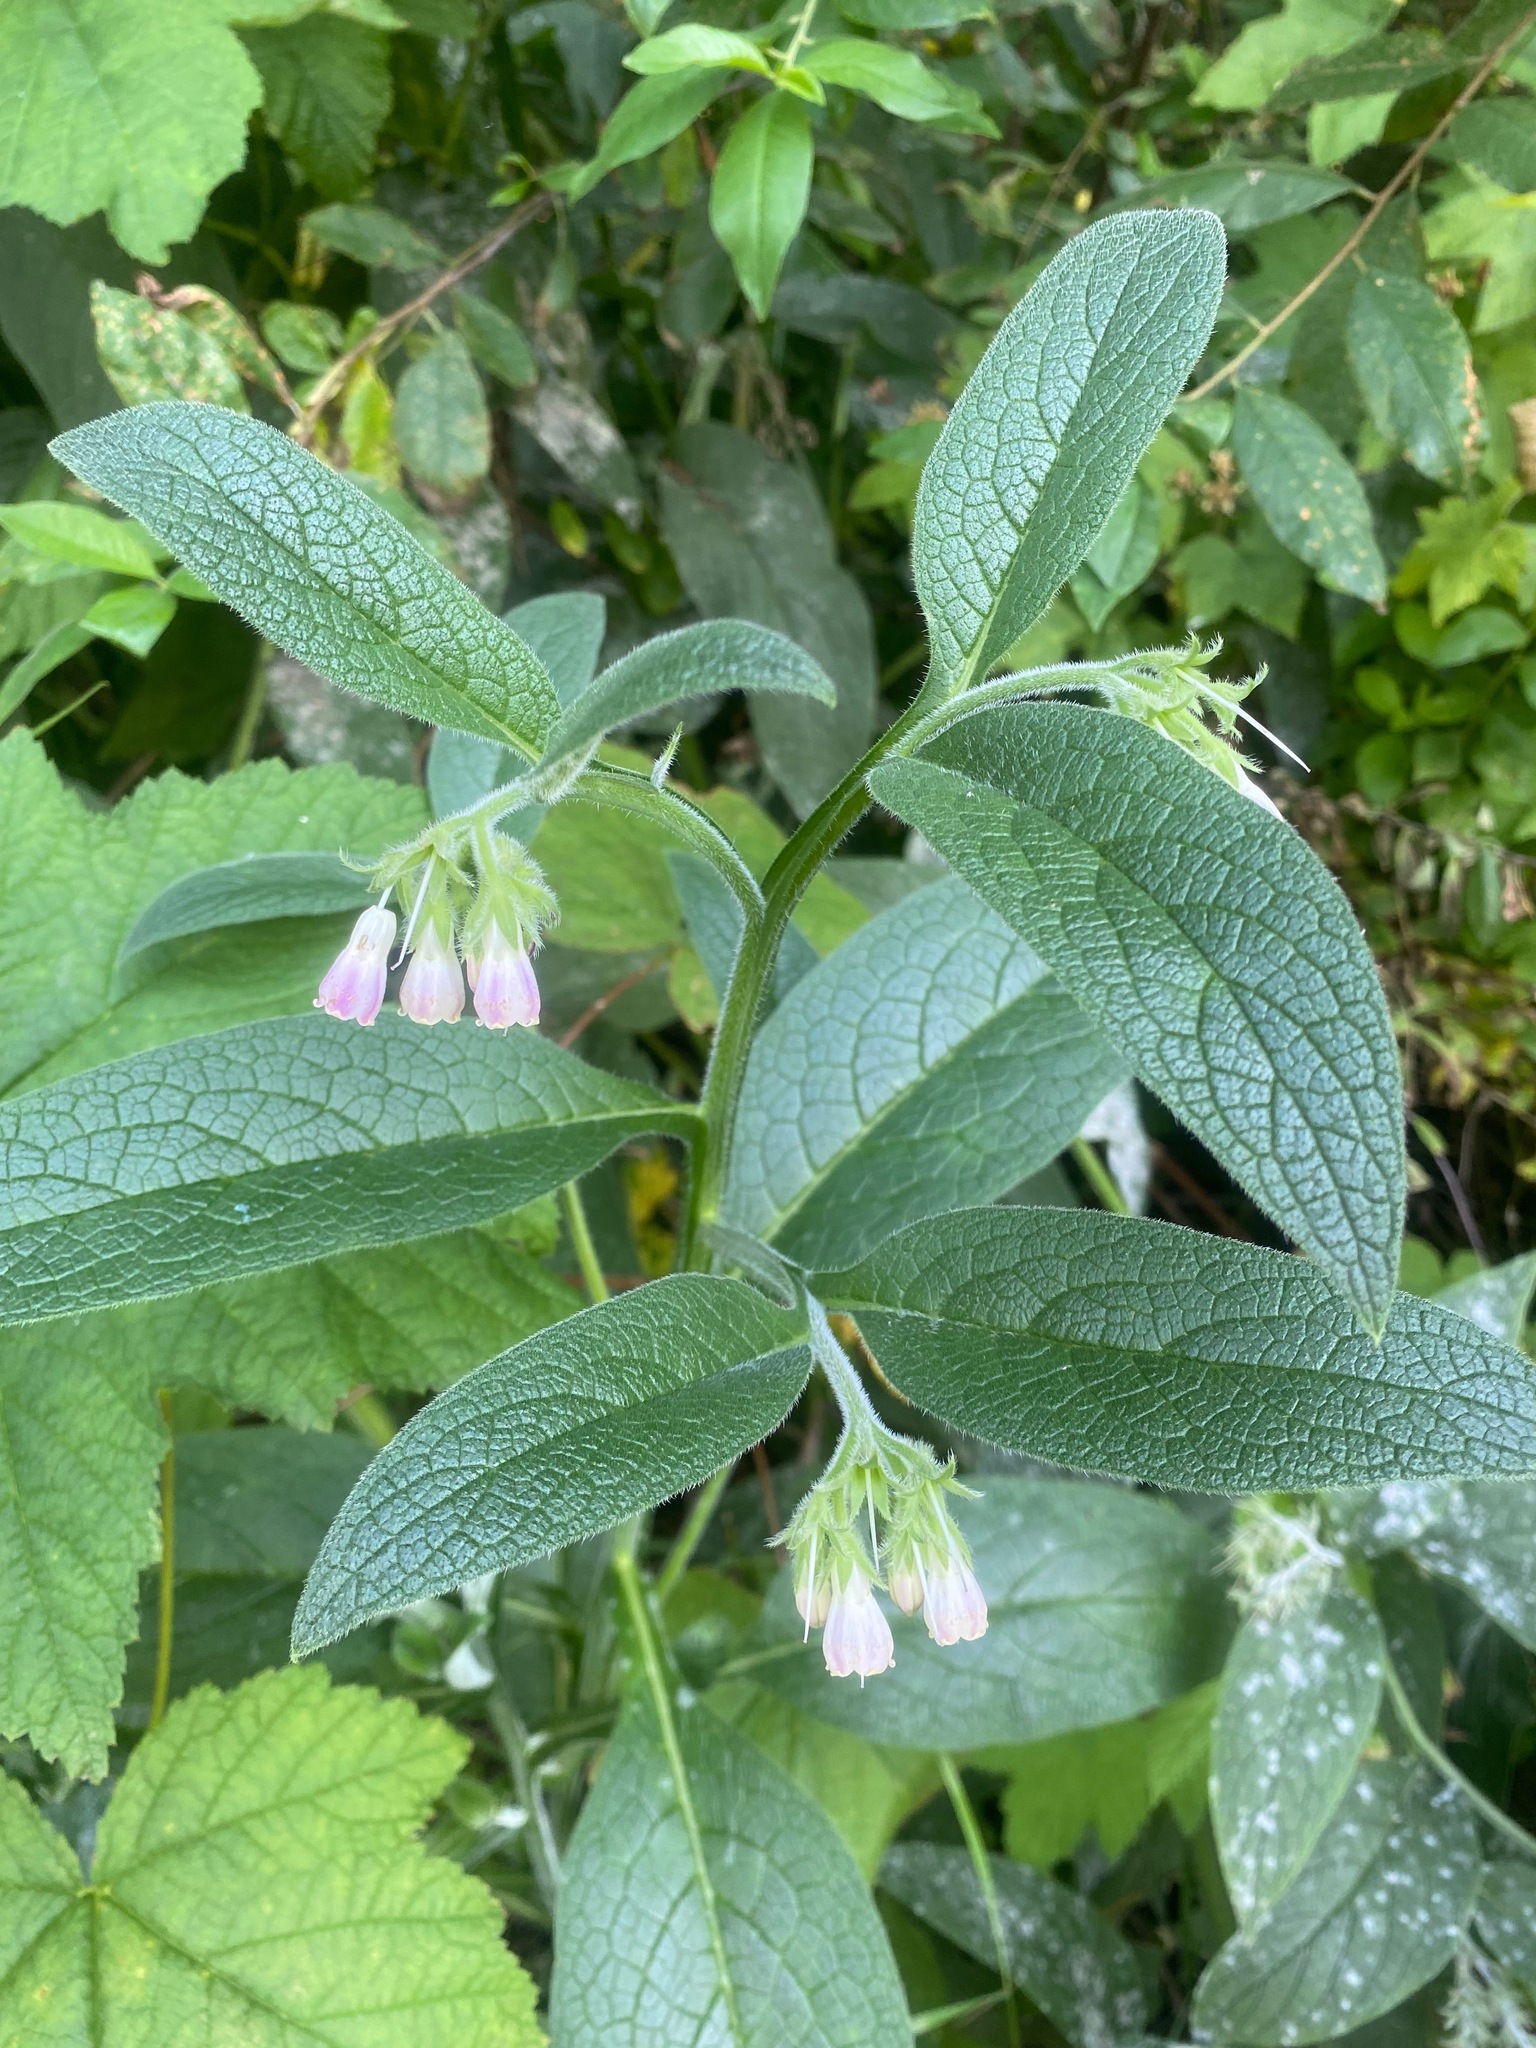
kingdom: Plantae
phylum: Tracheophyta
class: Magnoliopsida
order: Boraginales
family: Boraginaceae
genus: Symphytum
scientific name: Symphytum officinale
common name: Common comfrey
